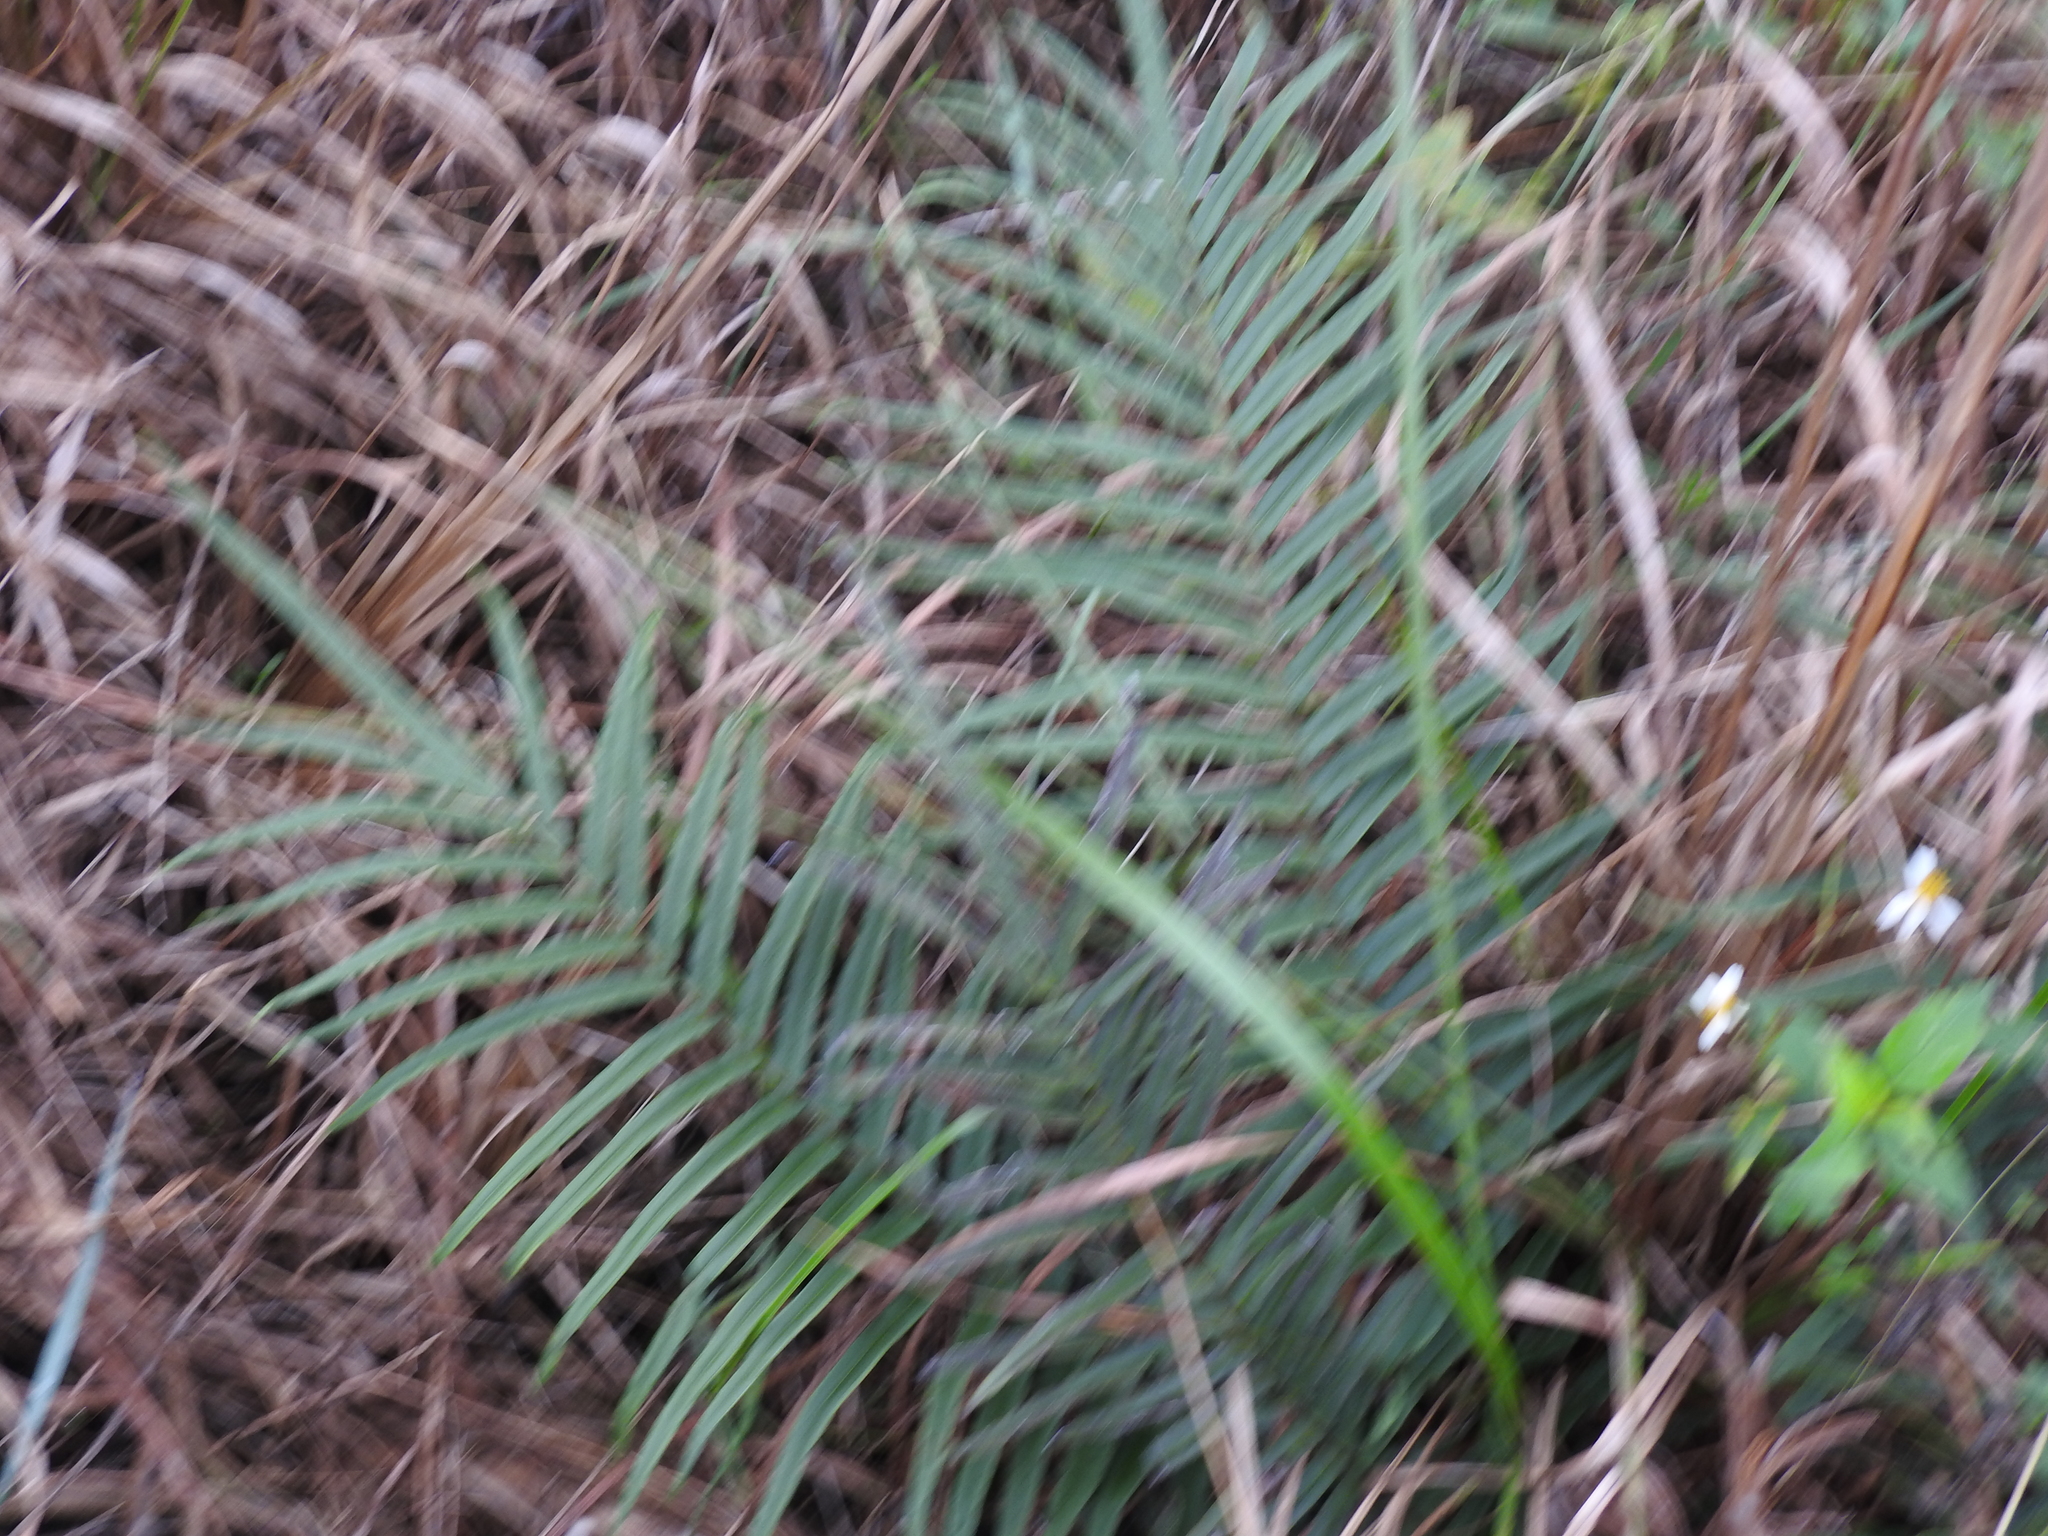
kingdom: Plantae
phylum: Tracheophyta
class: Polypodiopsida
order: Polypodiales
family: Pteridaceae
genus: Pteris
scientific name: Pteris vittata
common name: Ladder brake
